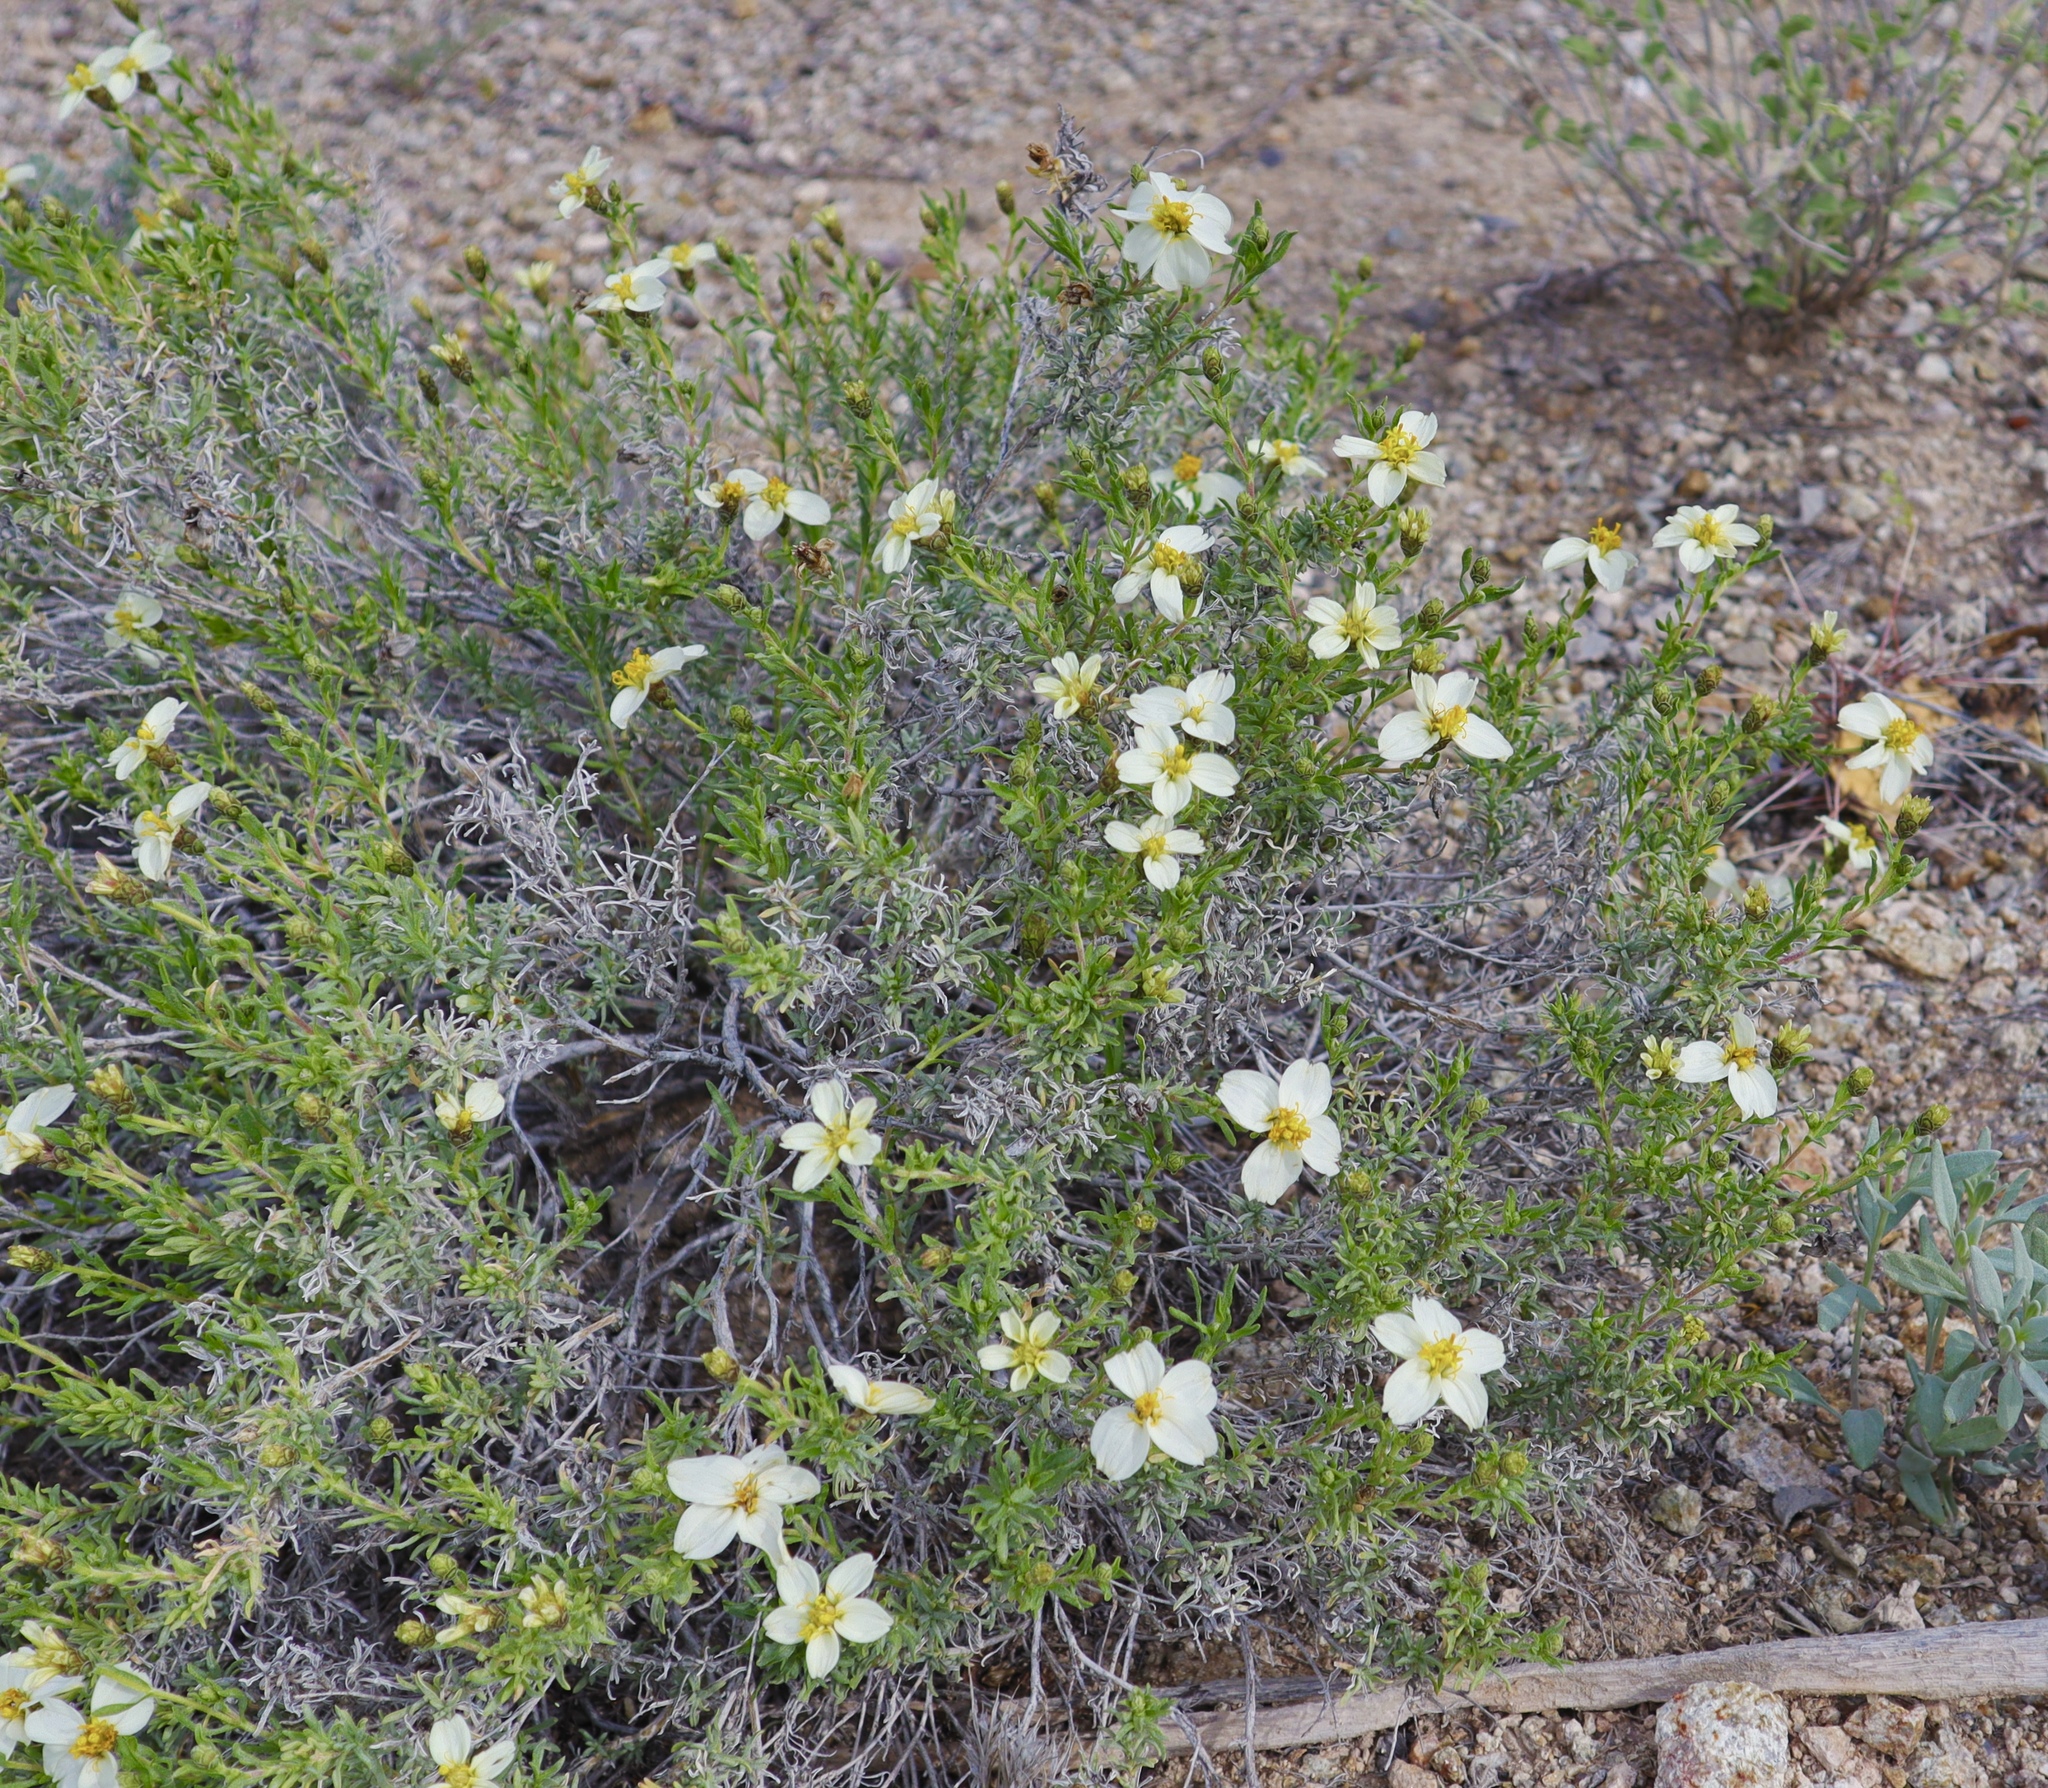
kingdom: Plantae
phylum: Tracheophyta
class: Magnoliopsida
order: Asterales
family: Asteraceae
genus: Zinnia
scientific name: Zinnia acerosa
